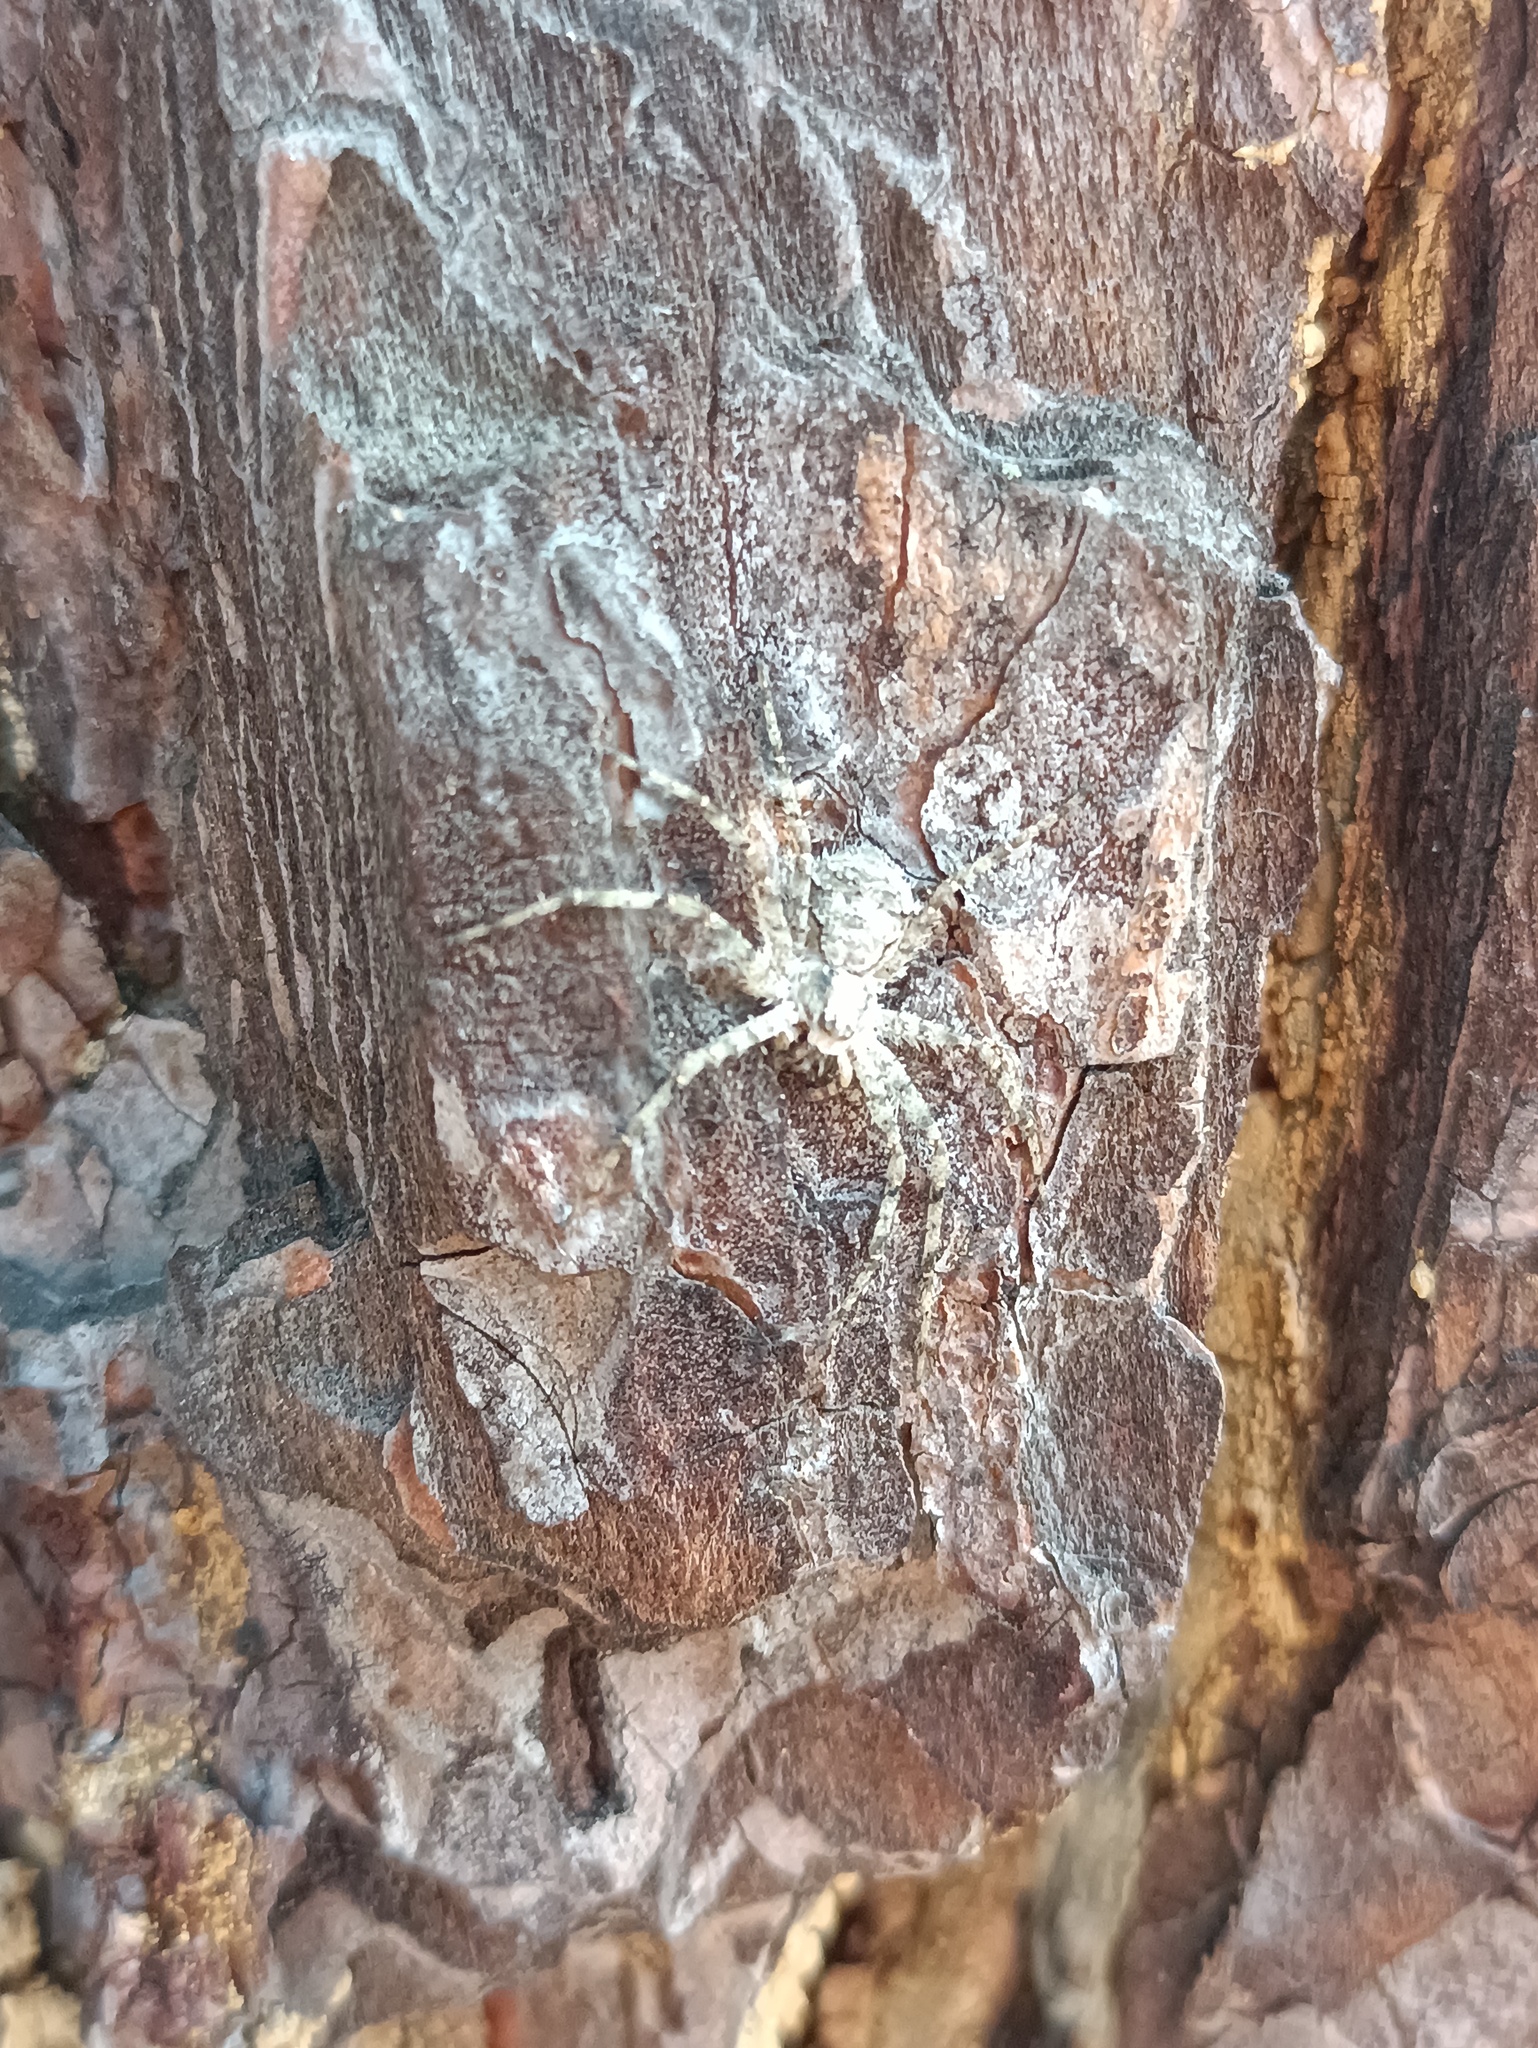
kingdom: Animalia
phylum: Arthropoda
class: Arachnida
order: Araneae
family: Philodromidae
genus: Philodromus
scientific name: Philodromus margaritatus
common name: Lichen running-spider
